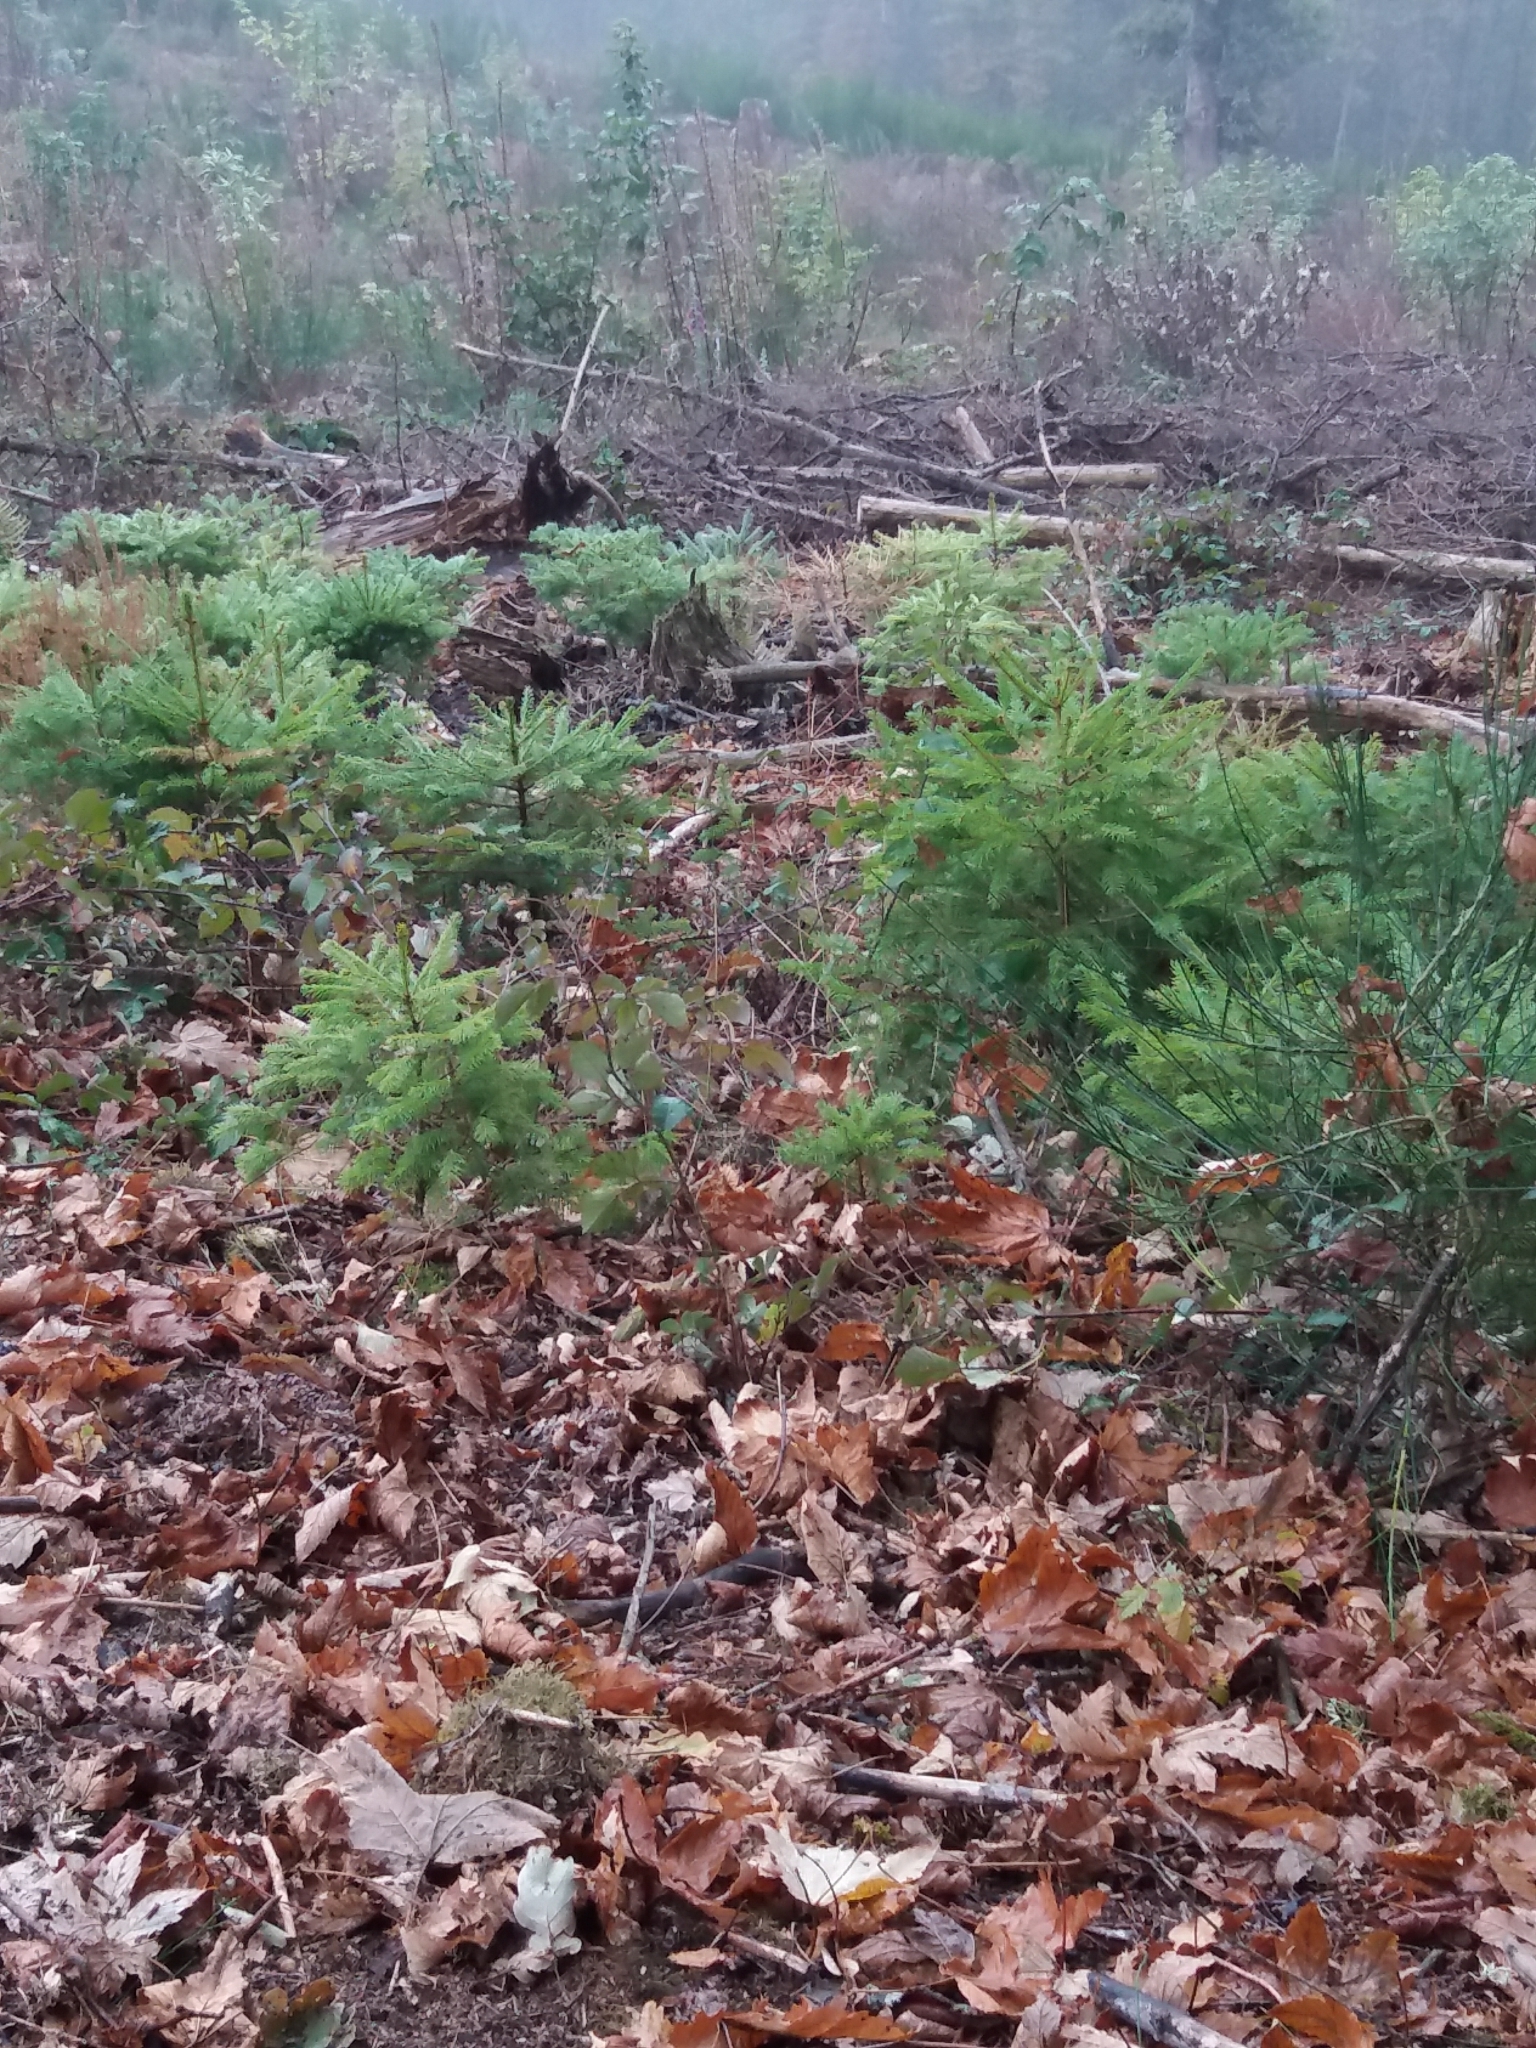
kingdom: Plantae
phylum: Tracheophyta
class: Pinopsida
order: Pinales
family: Pinaceae
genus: Picea
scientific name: Picea abies
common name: Norway spruce
